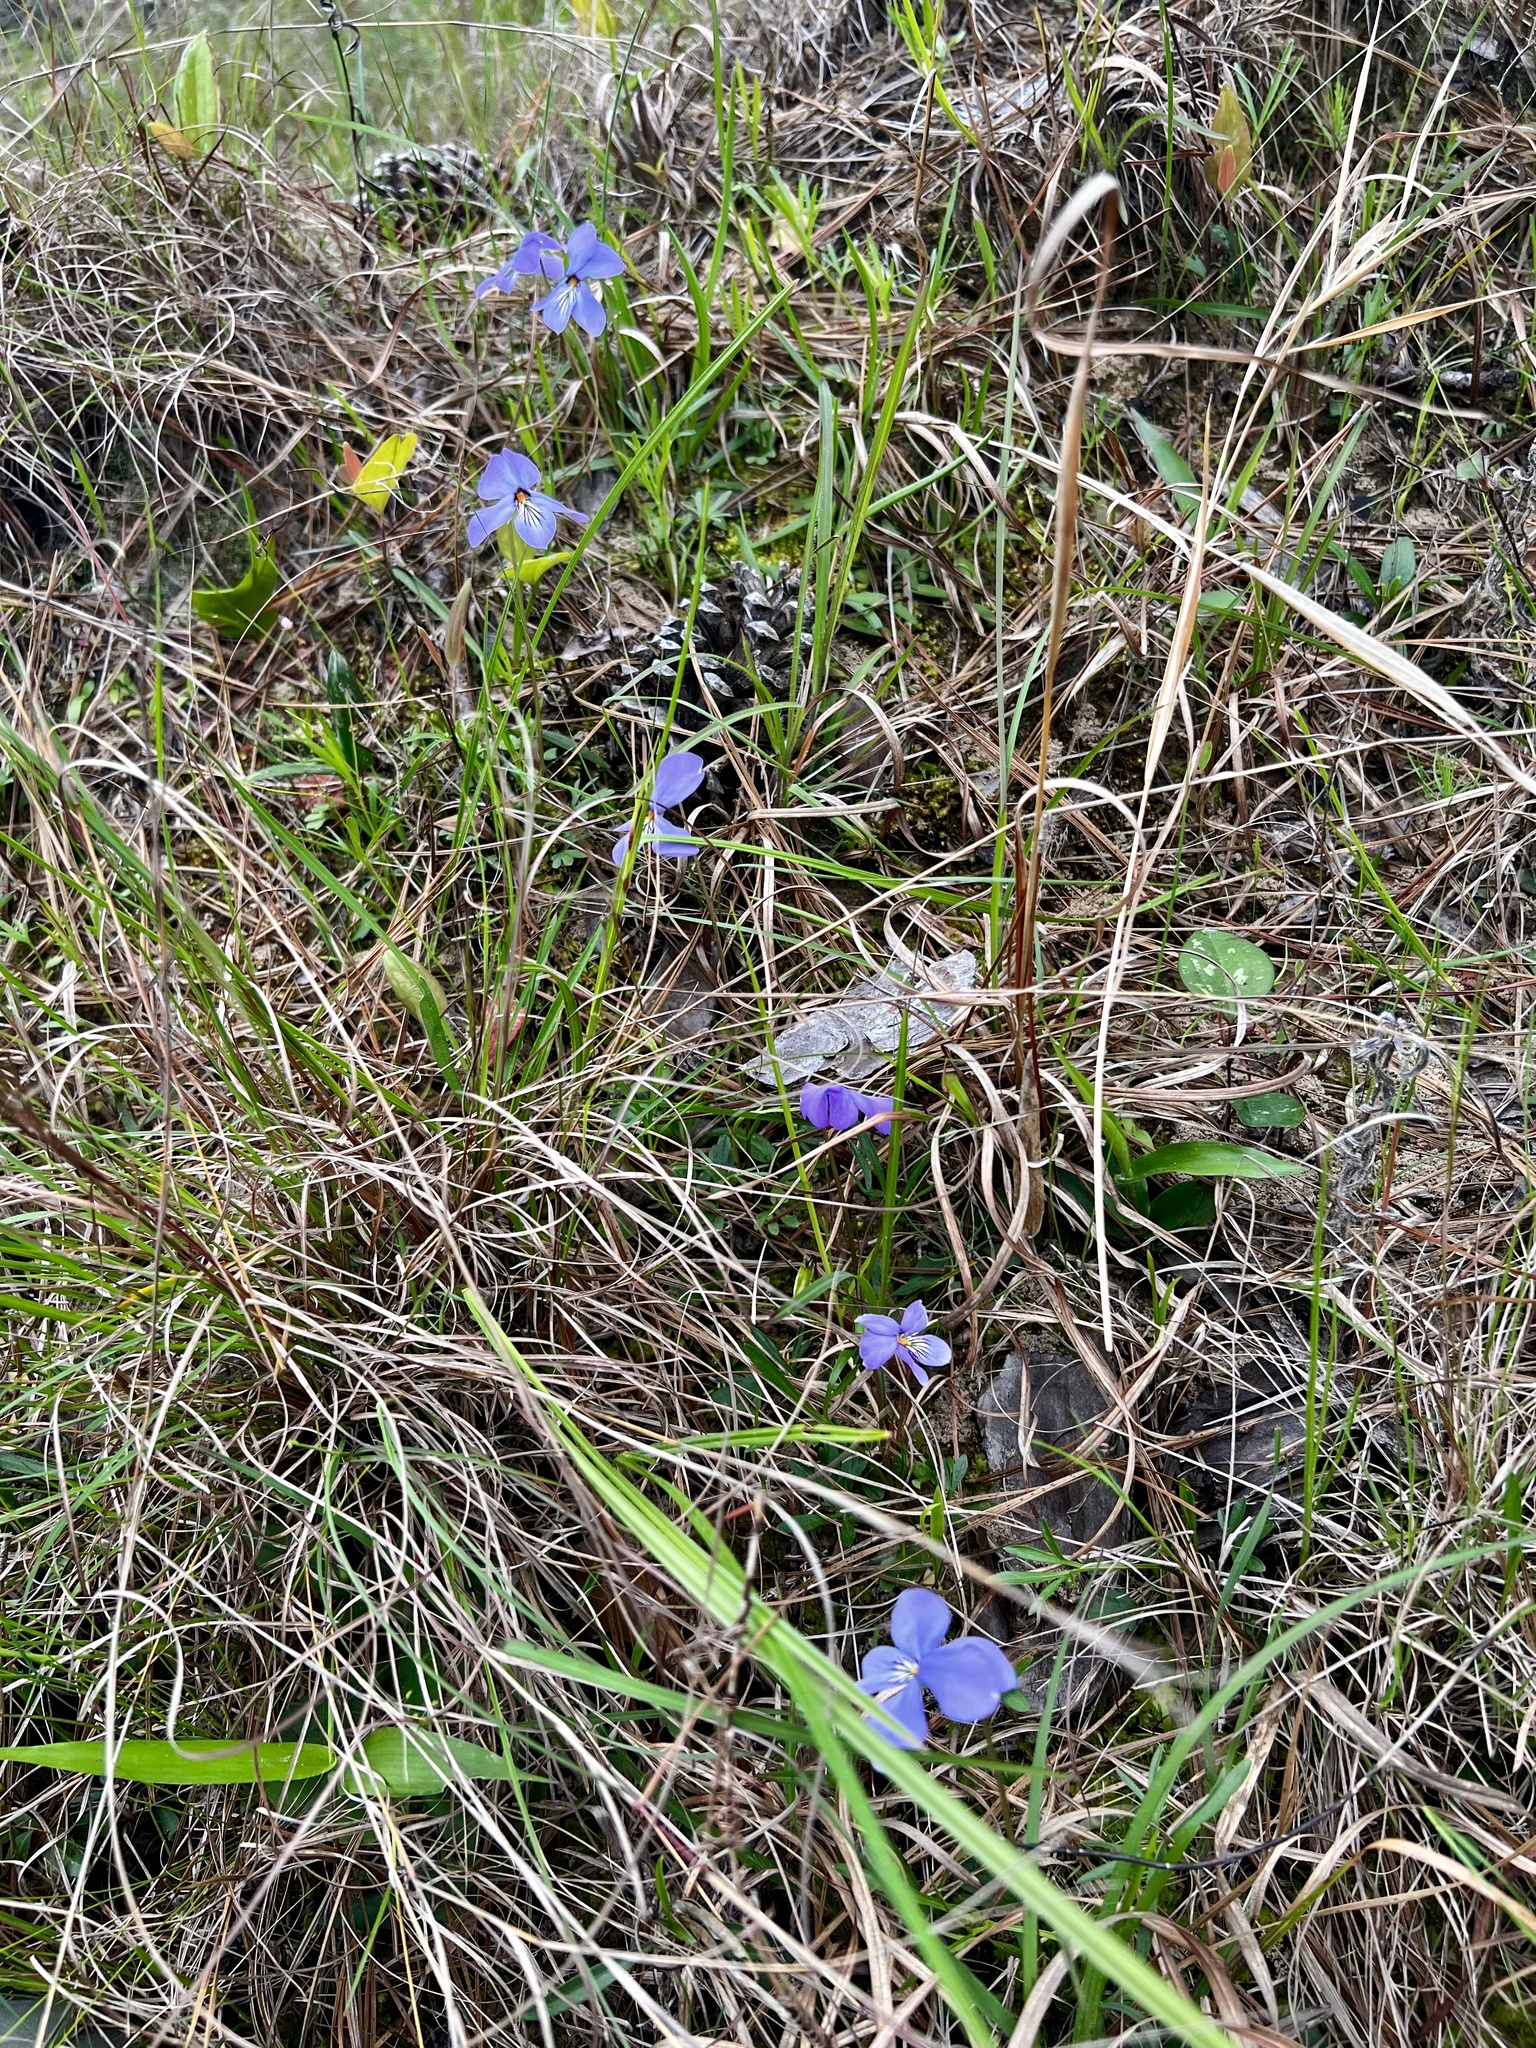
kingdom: Plantae
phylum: Tracheophyta
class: Magnoliopsida
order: Malpighiales
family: Violaceae
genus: Viola
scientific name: Viola pedata
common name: Pansy violet
